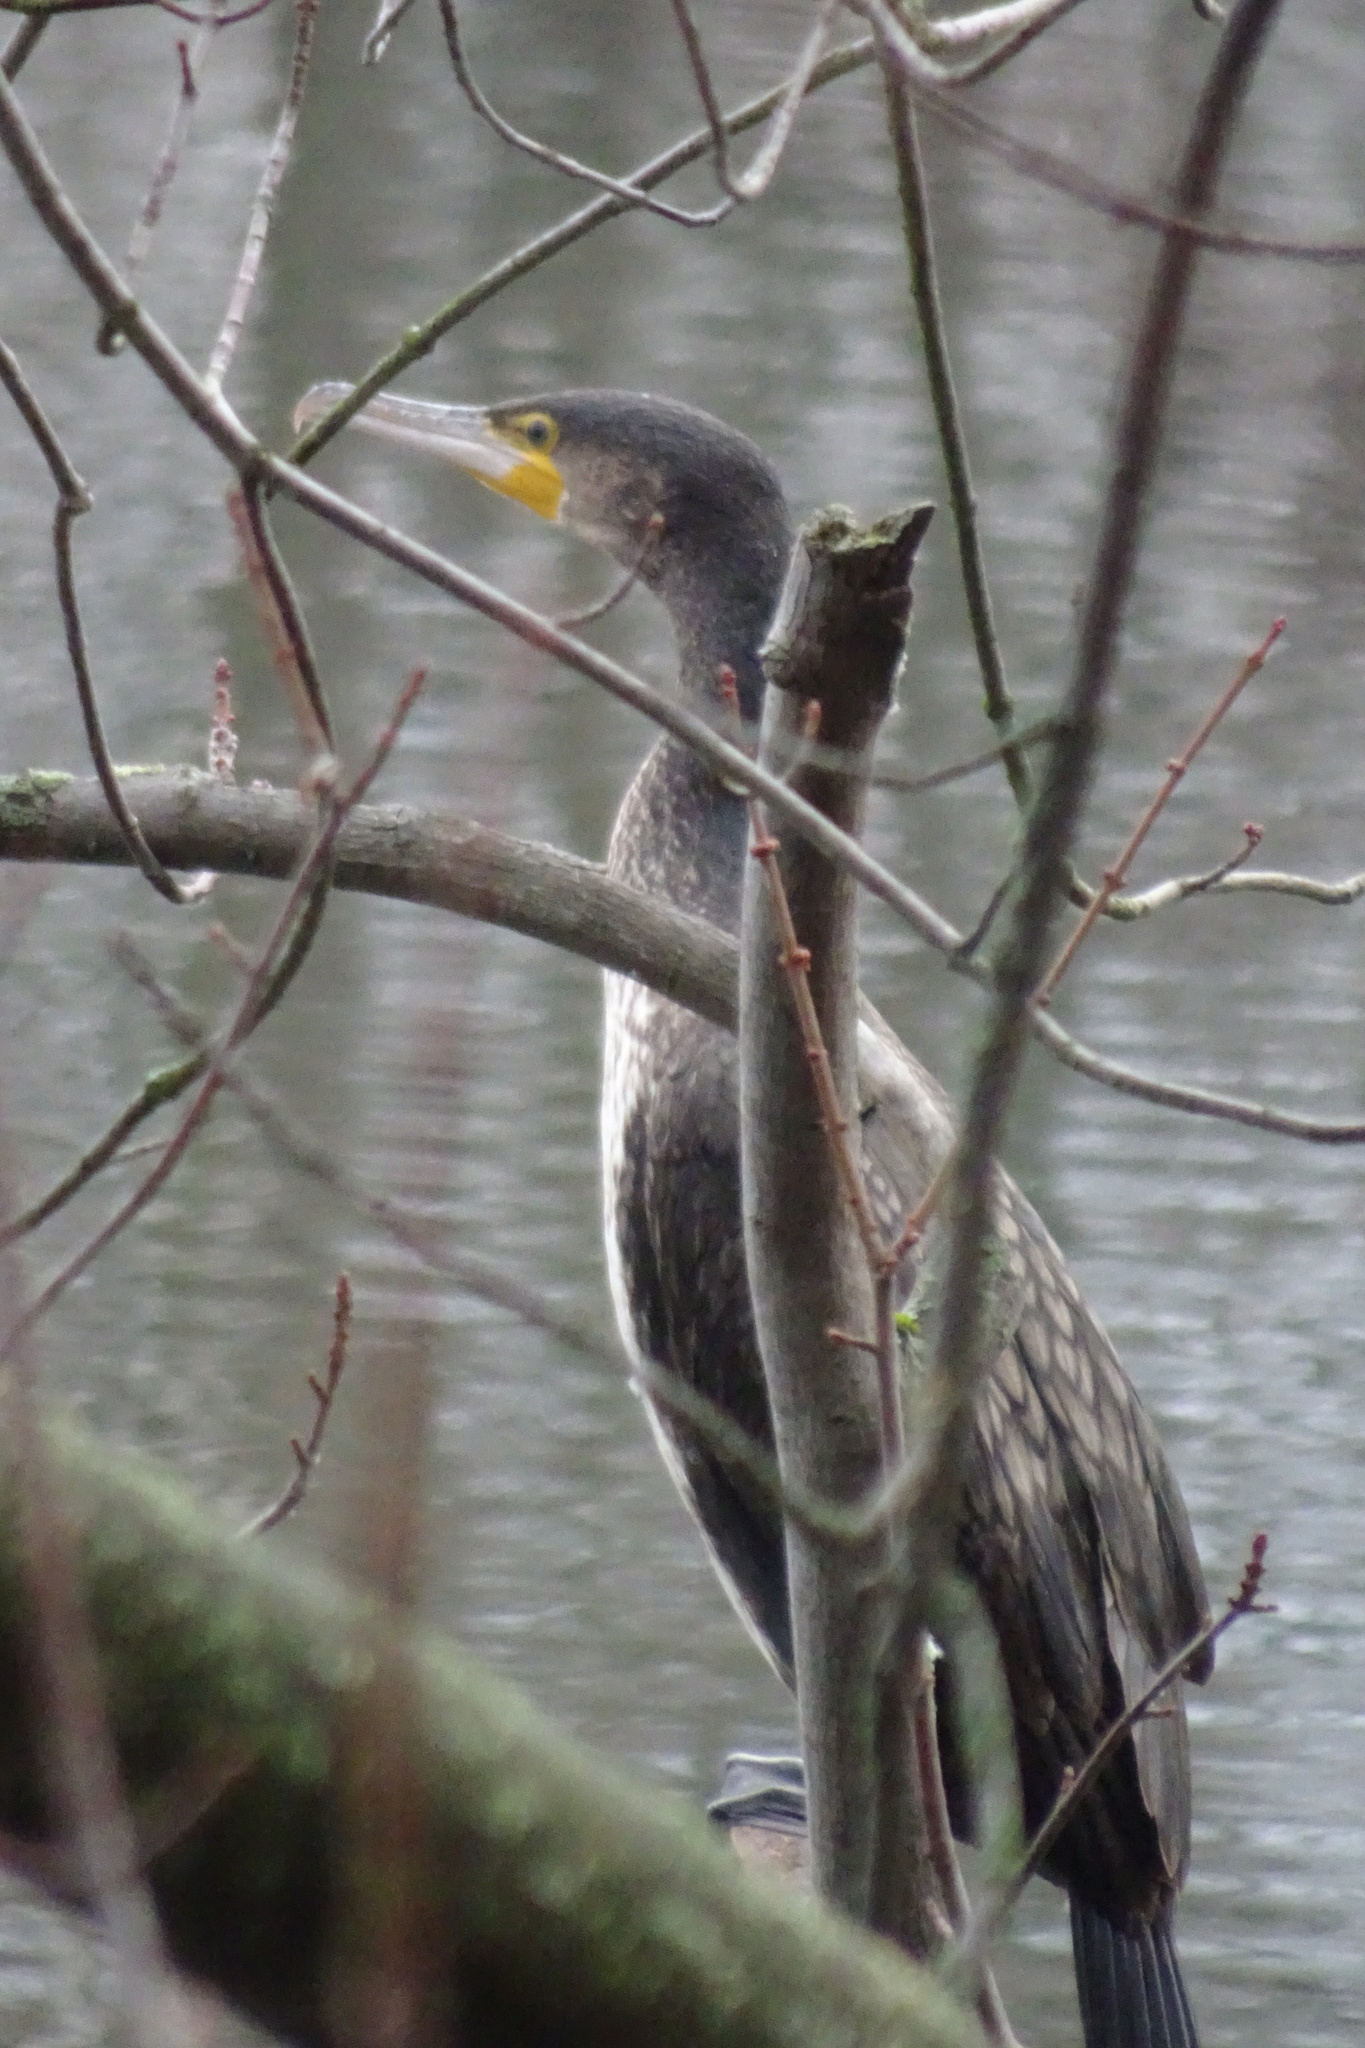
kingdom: Animalia
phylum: Chordata
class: Aves
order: Suliformes
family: Phalacrocoracidae
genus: Phalacrocorax
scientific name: Phalacrocorax carbo
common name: Great cormorant
